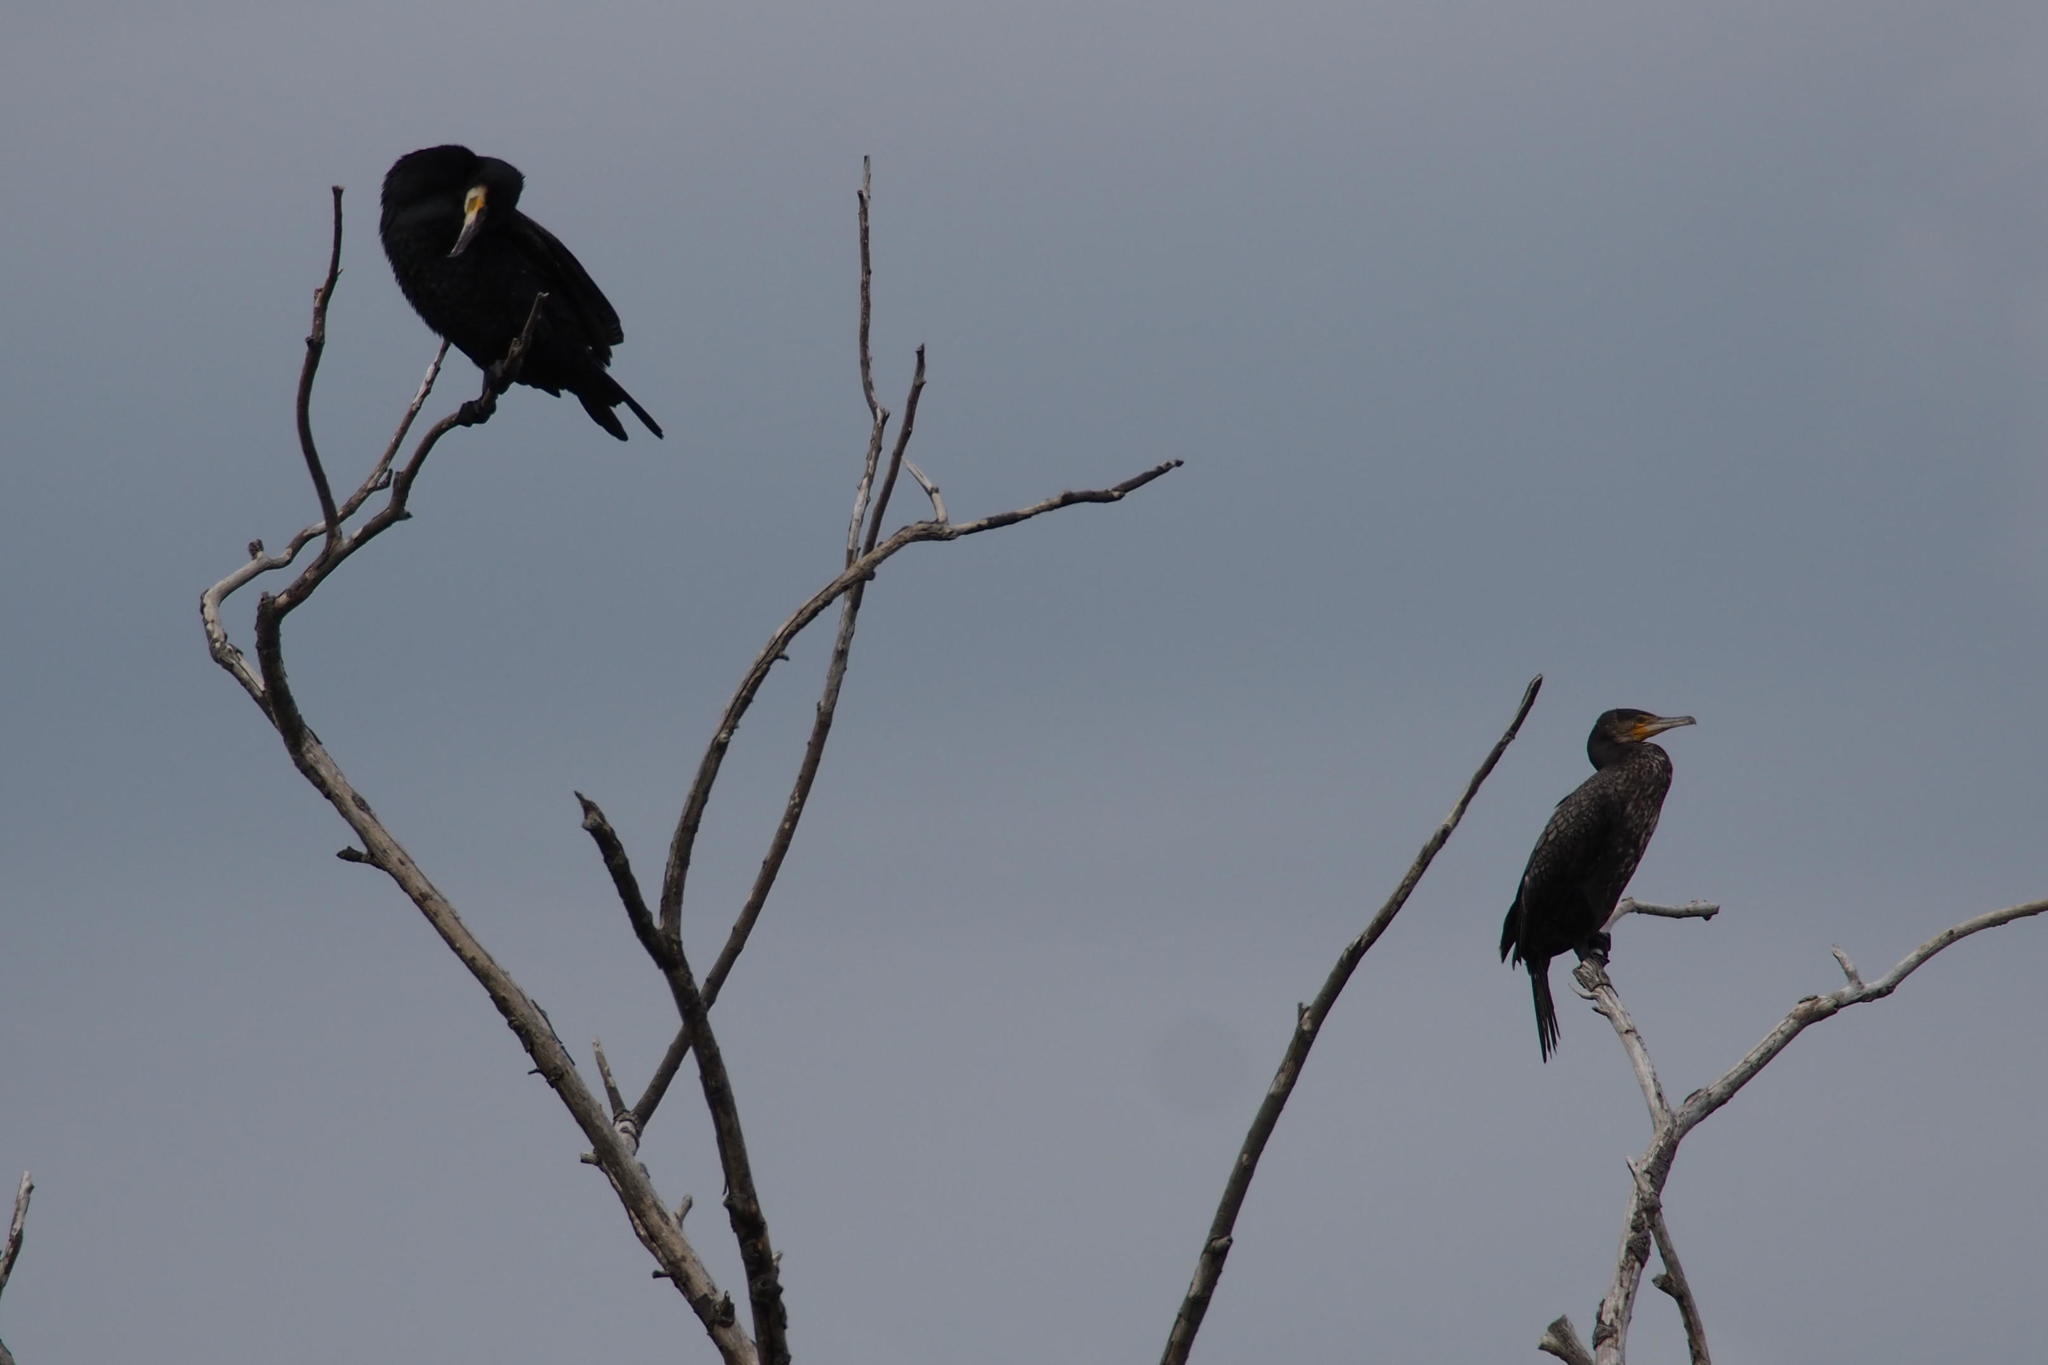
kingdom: Animalia
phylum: Chordata
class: Aves
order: Suliformes
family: Phalacrocoracidae
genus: Phalacrocorax
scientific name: Phalacrocorax carbo
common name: Great cormorant
